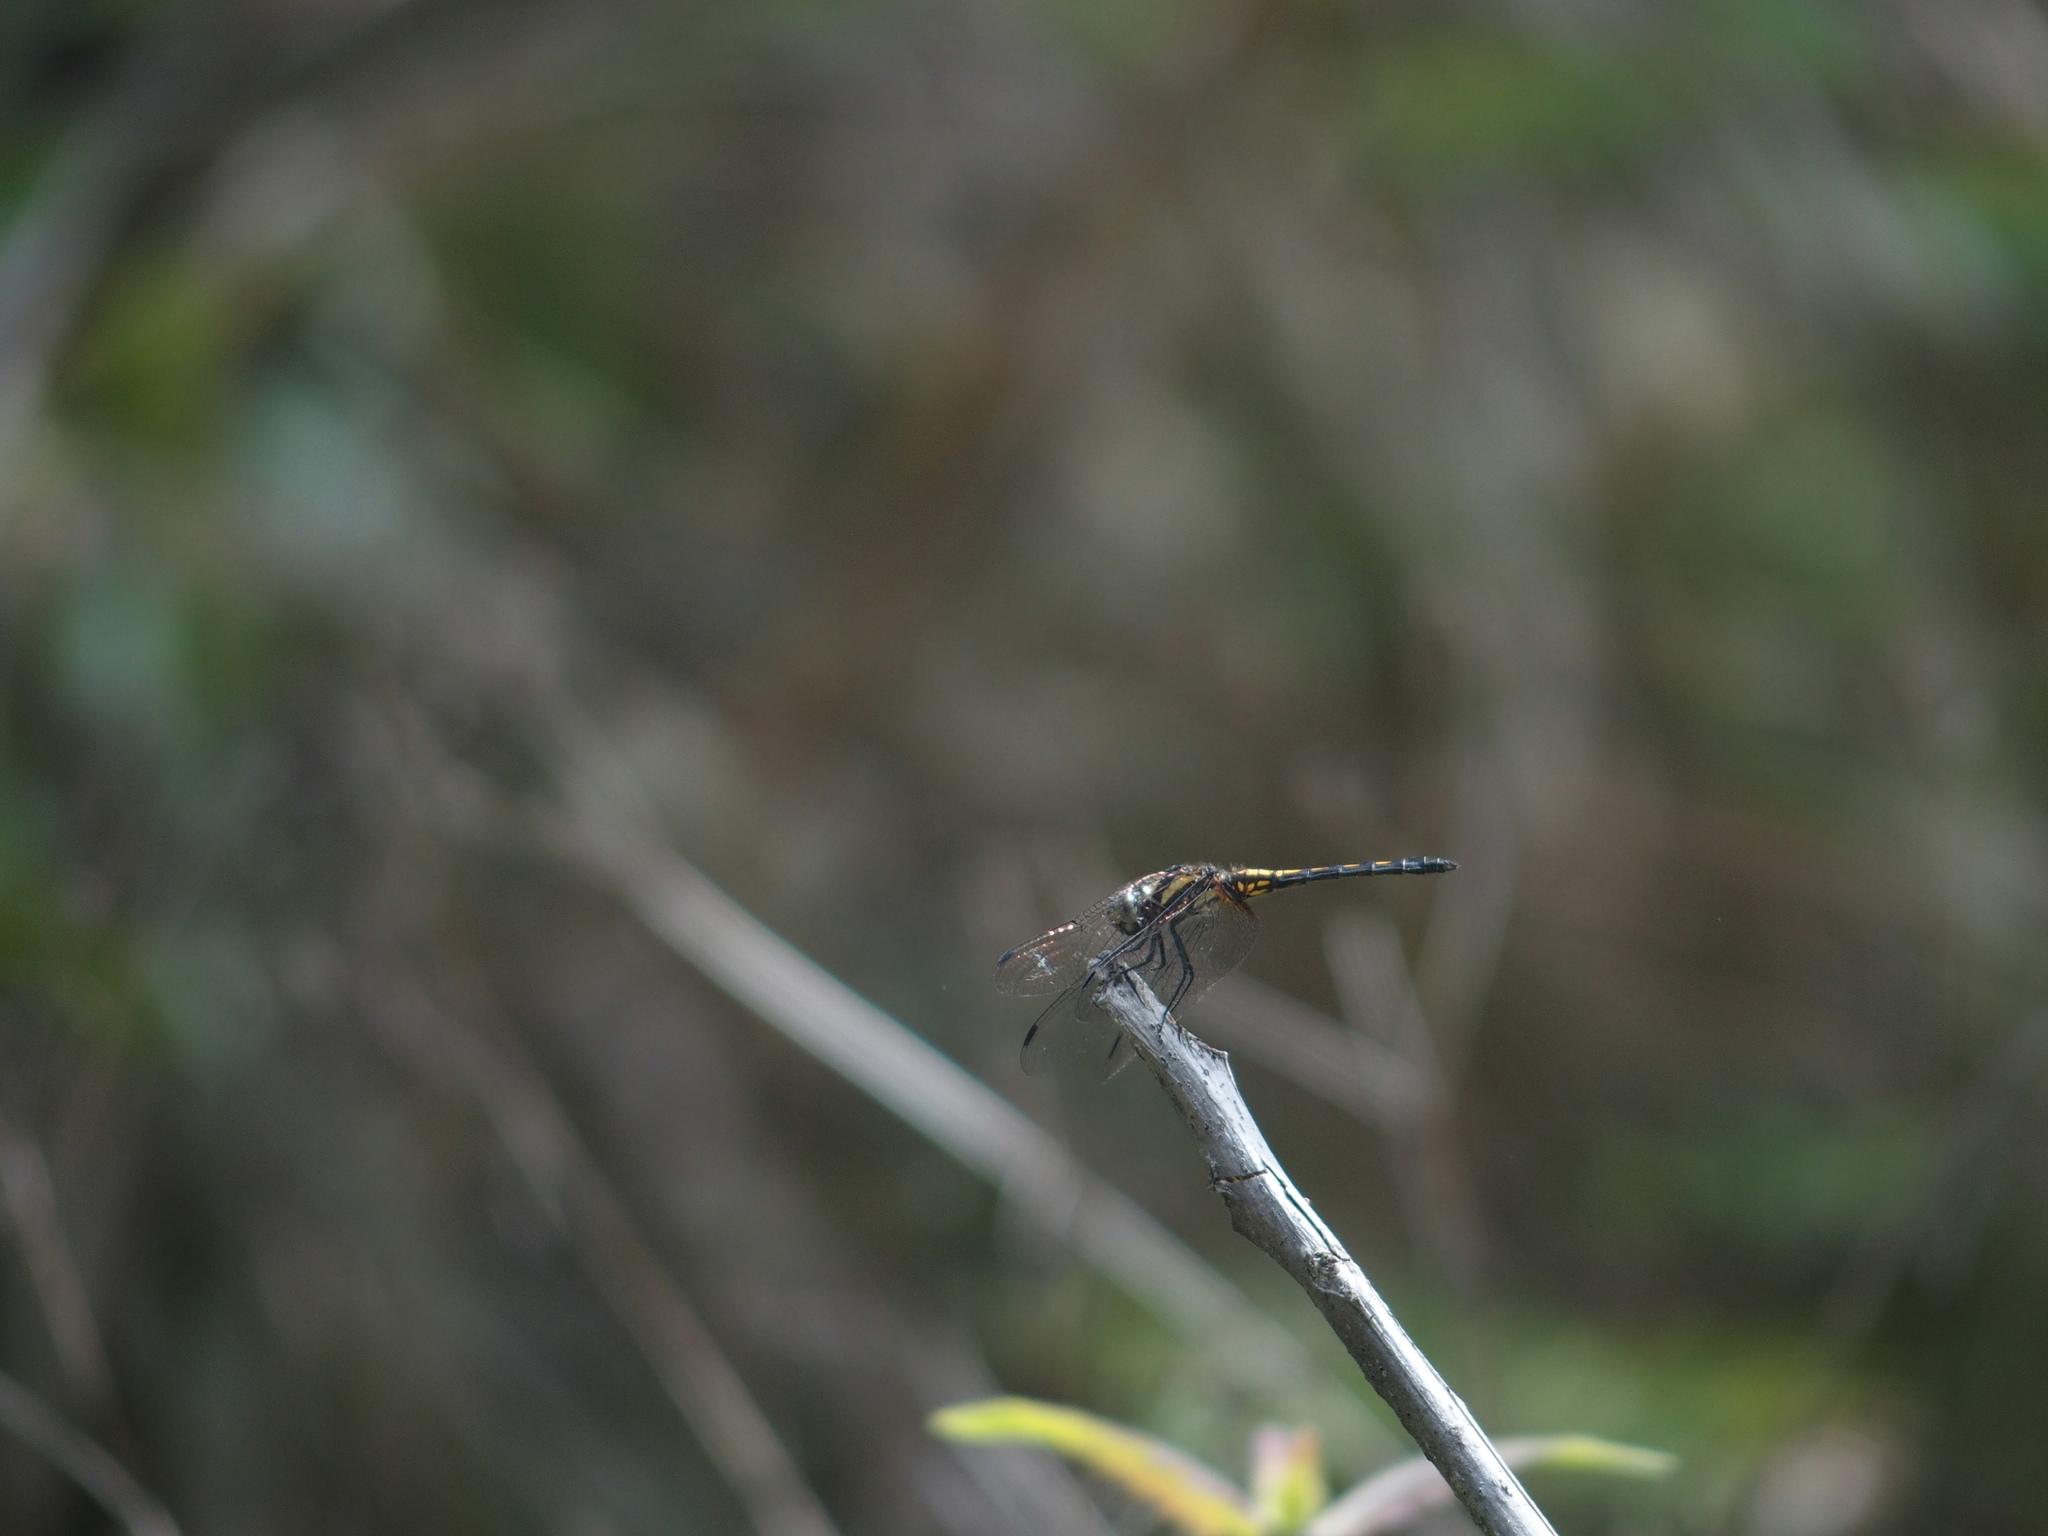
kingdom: Animalia
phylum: Arthropoda
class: Insecta
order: Odonata
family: Libellulidae
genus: Trithemis
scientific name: Trithemis festiva
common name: Indigo dropwing
